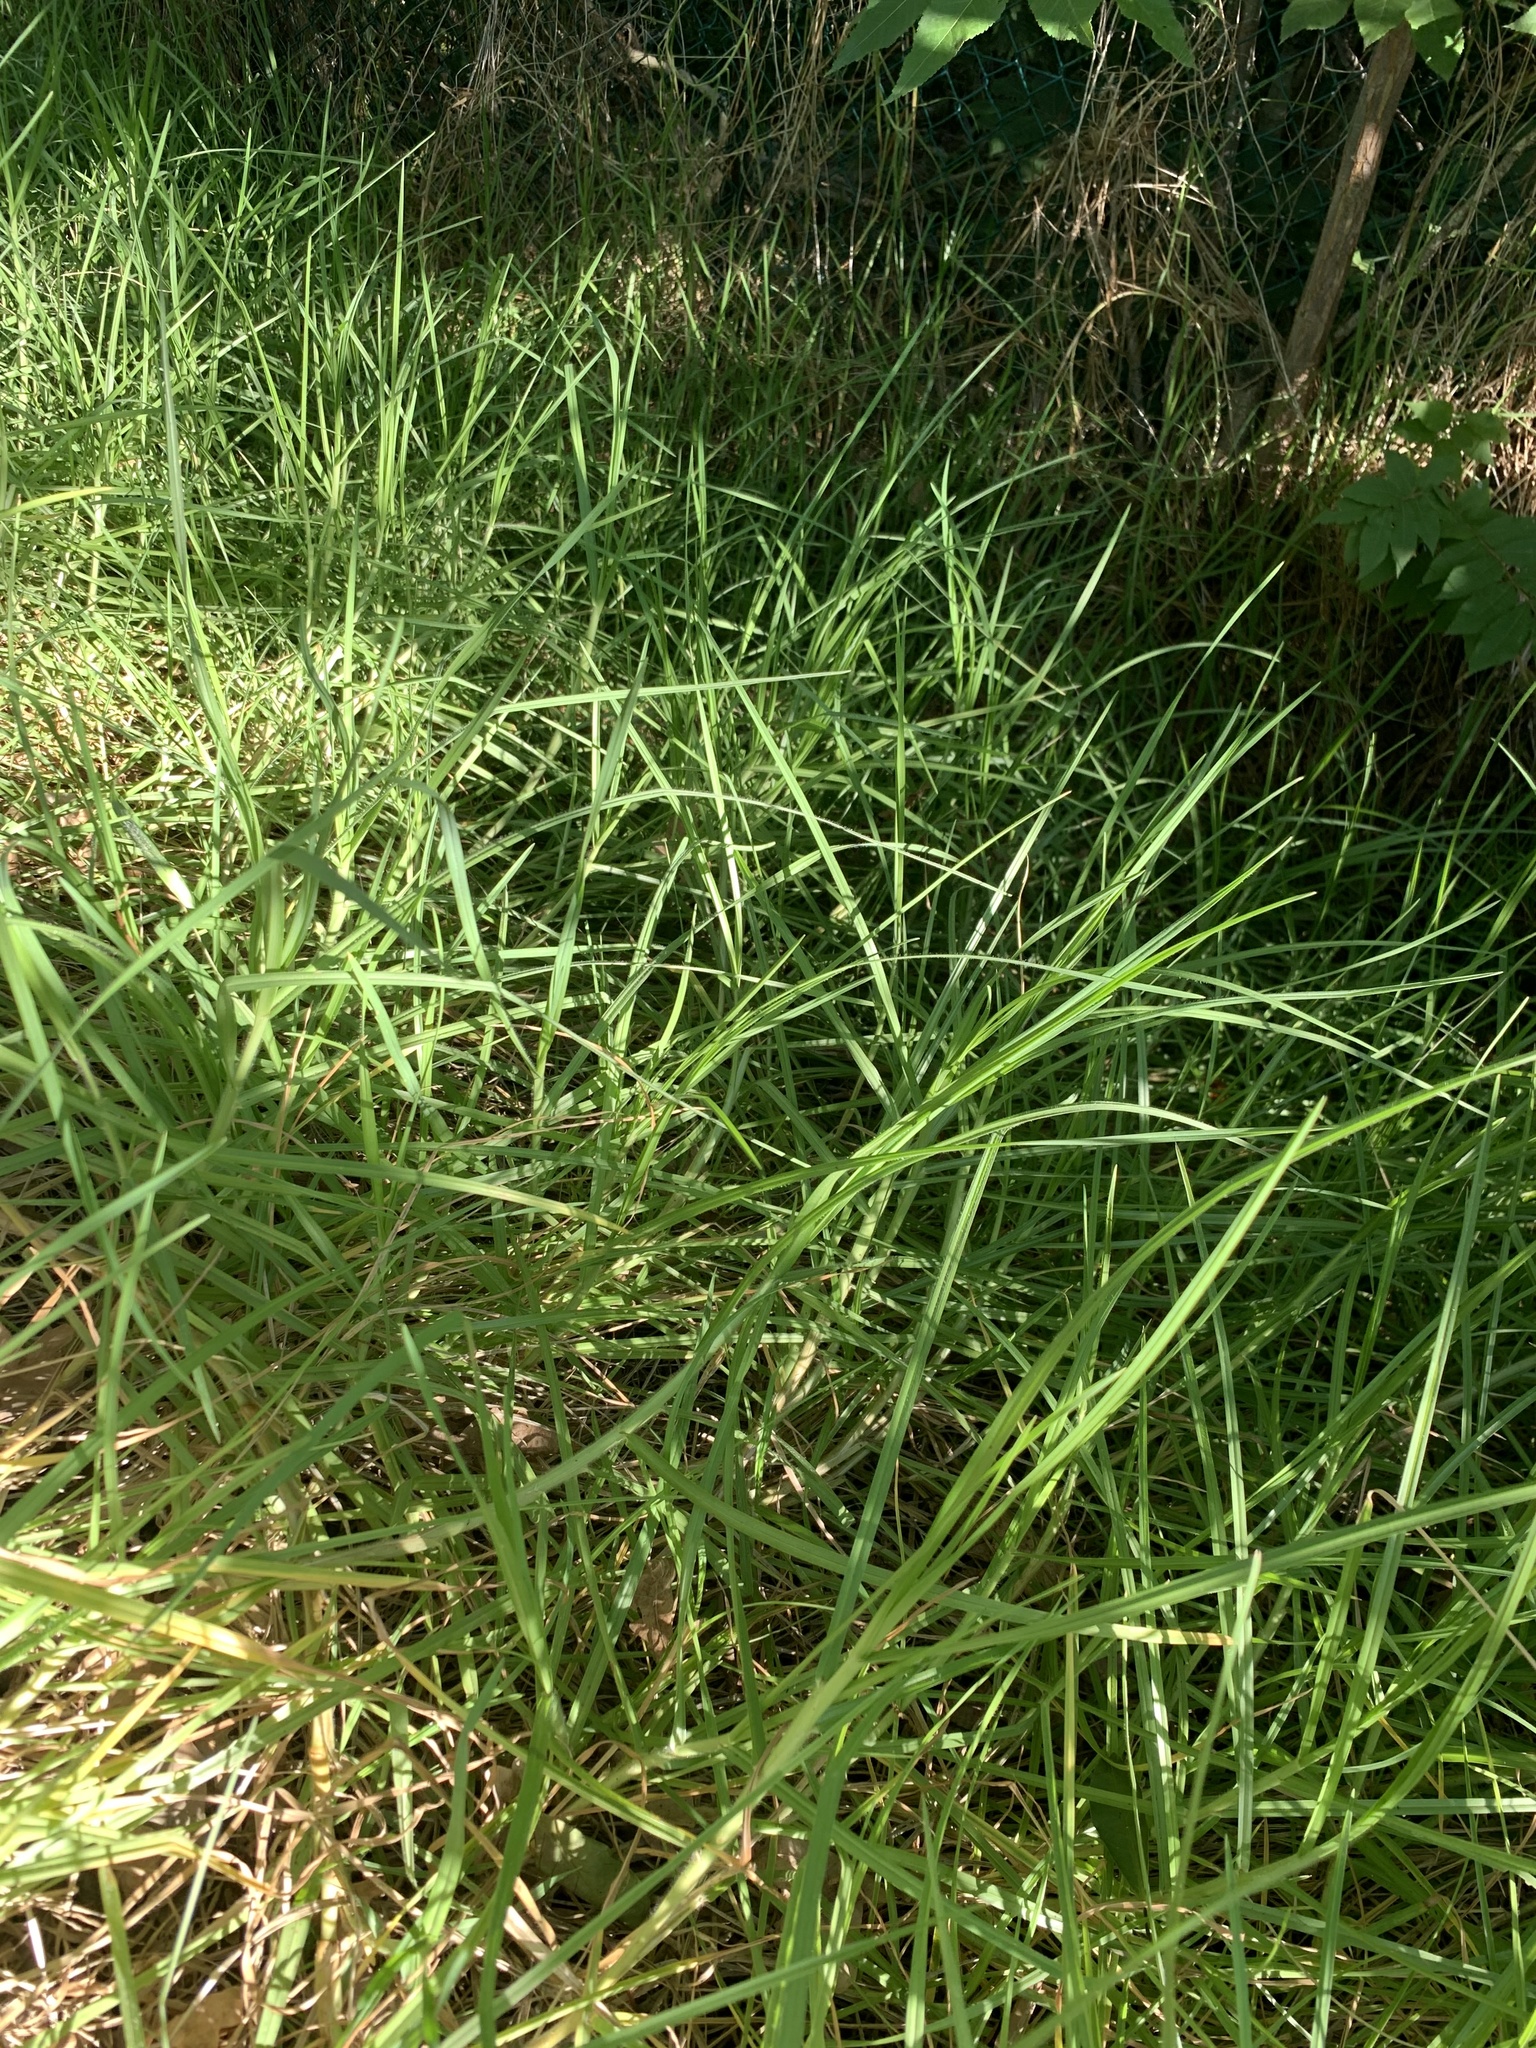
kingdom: Plantae
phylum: Tracheophyta
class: Liliopsida
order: Poales
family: Poaceae
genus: Cenchrus
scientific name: Cenchrus clandestinus
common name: Kikuyugrass
